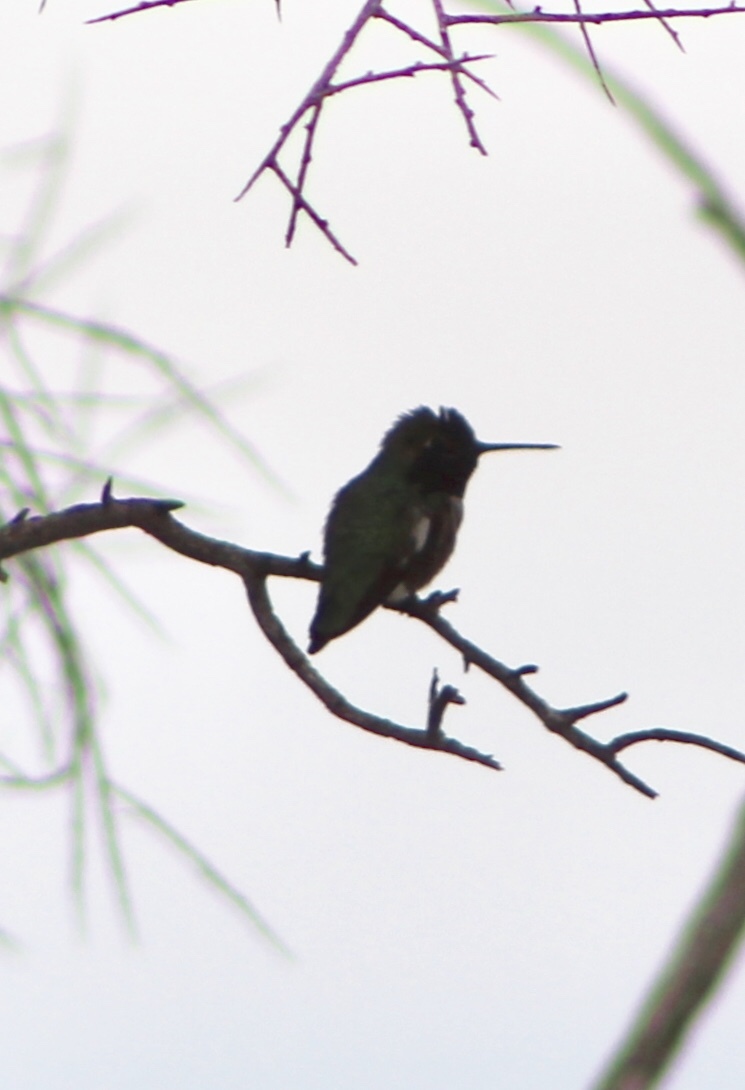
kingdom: Animalia
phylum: Chordata
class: Aves
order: Apodiformes
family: Trochilidae
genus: Calypte
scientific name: Calypte anna
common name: Anna's hummingbird
